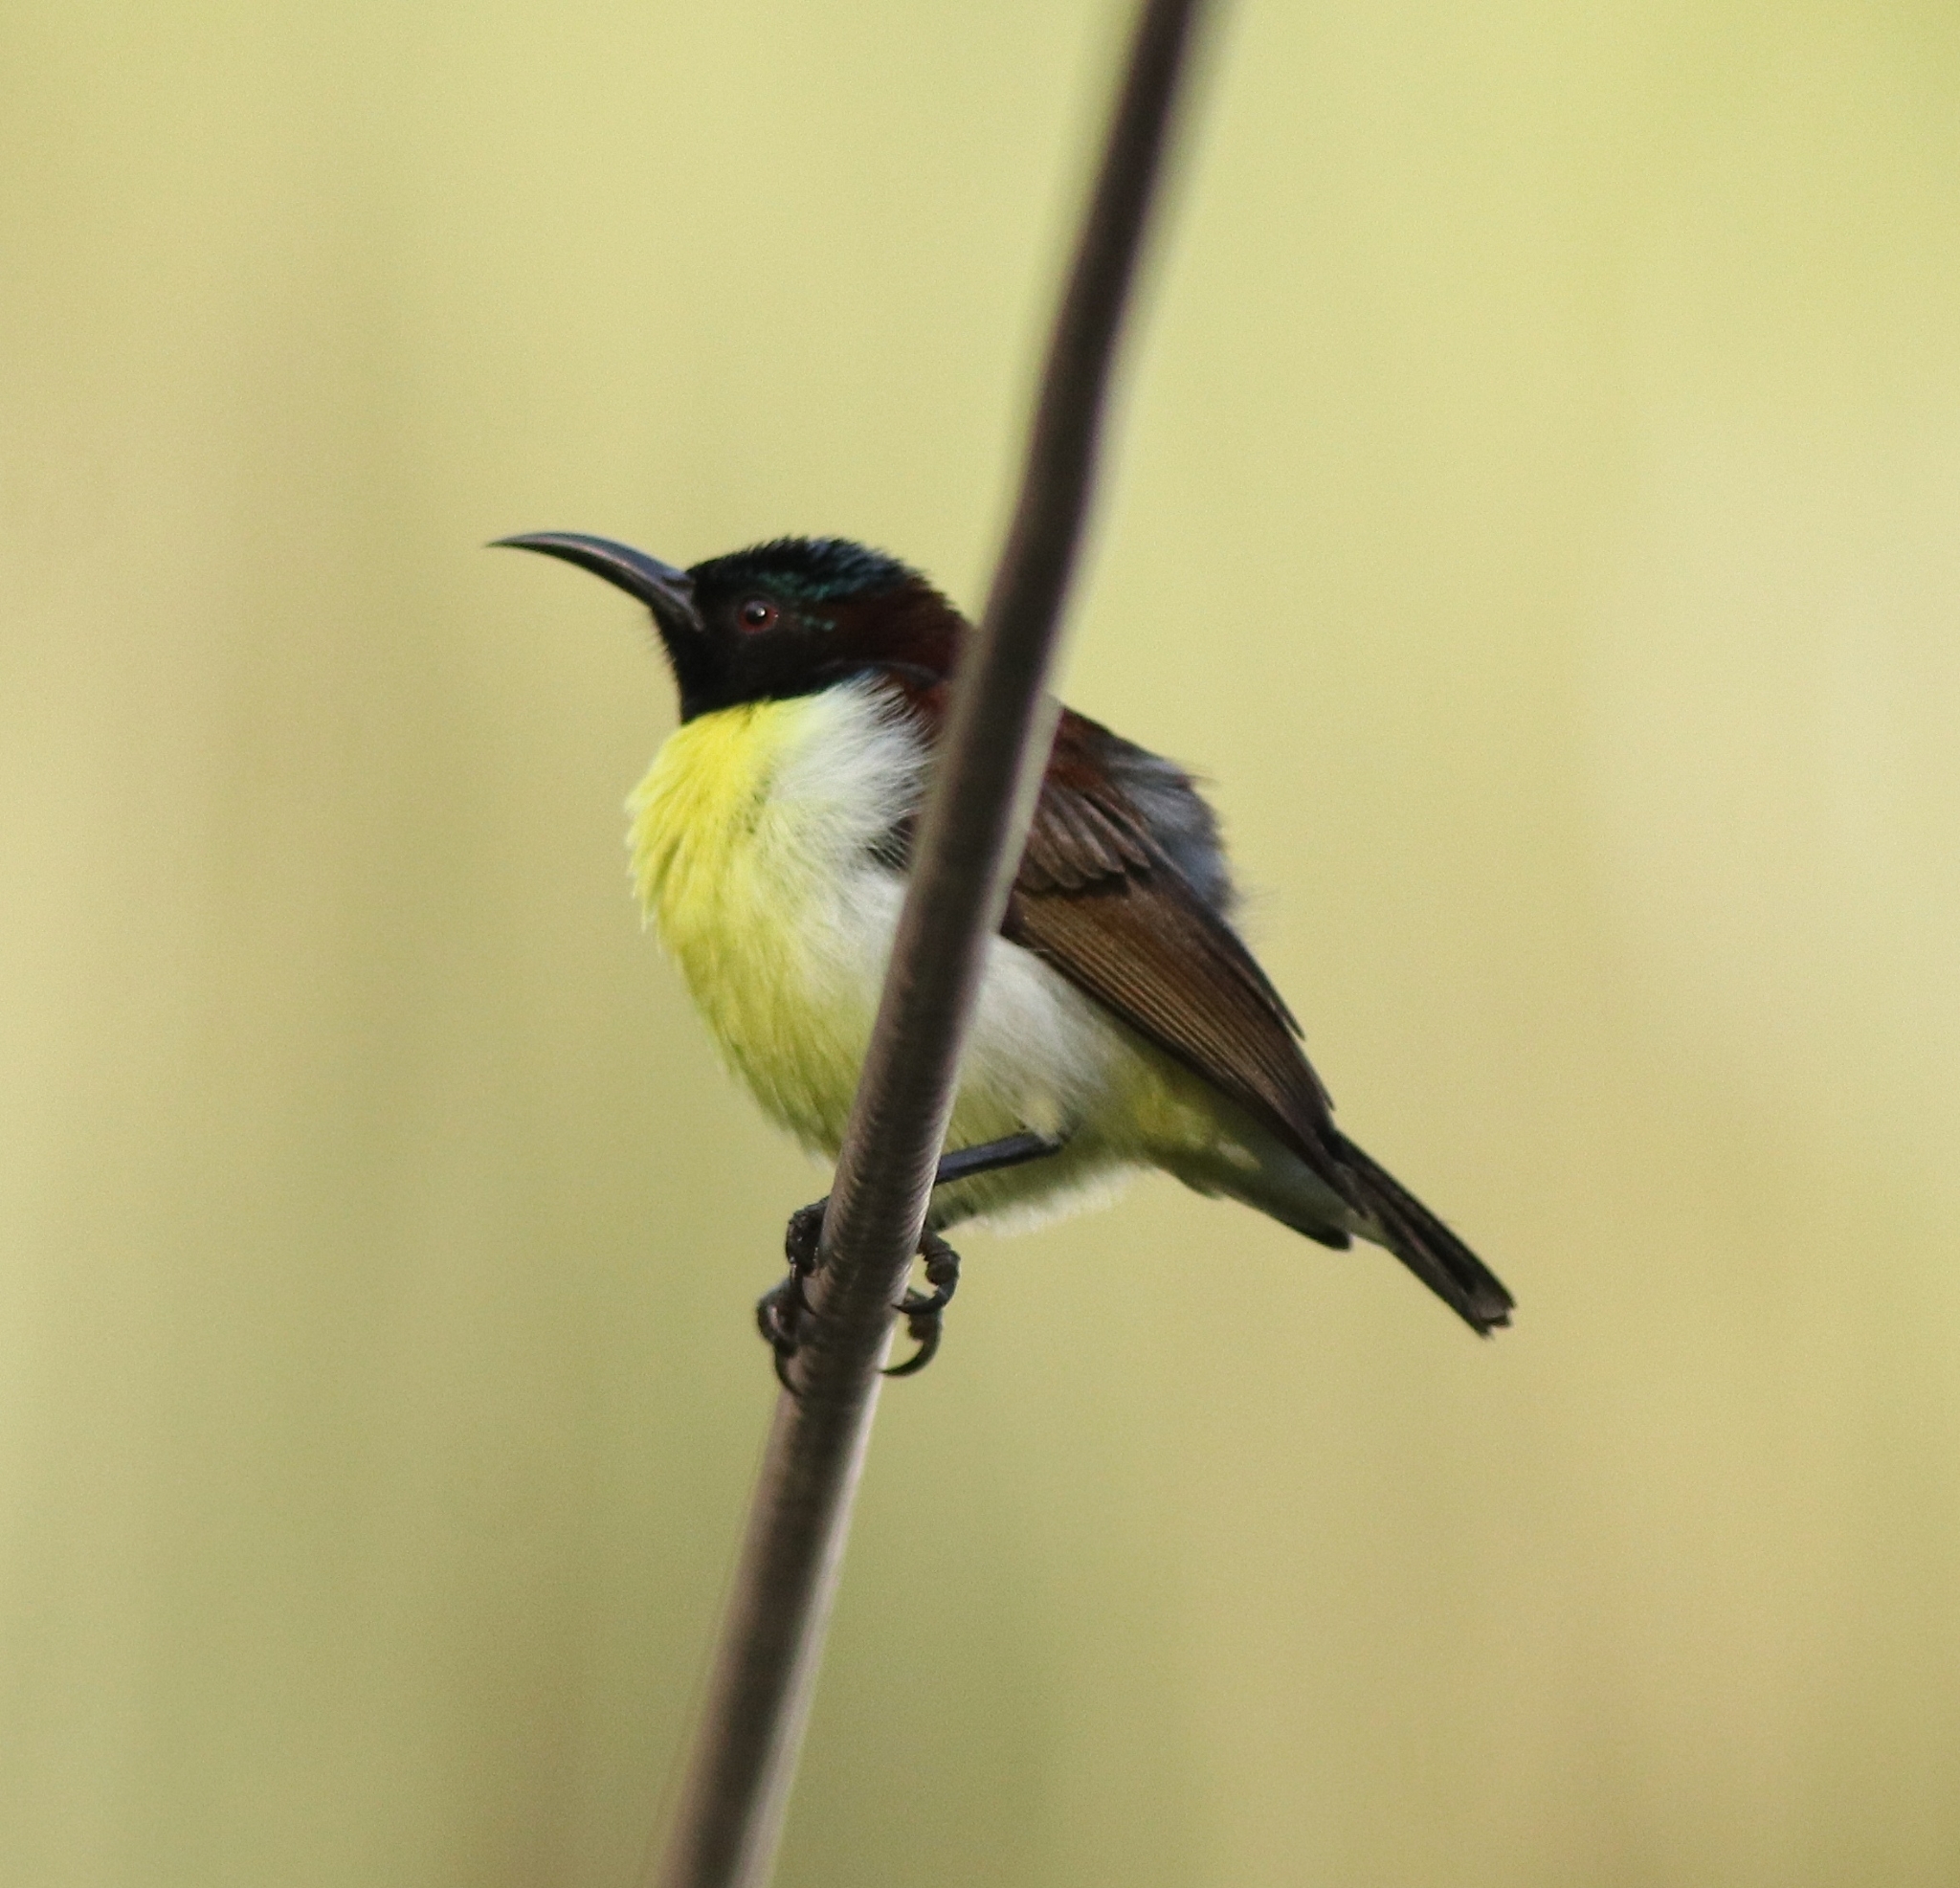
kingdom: Animalia
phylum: Chordata
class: Aves
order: Passeriformes
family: Nectariniidae
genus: Leptocoma
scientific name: Leptocoma zeylonica
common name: Purple-rumped sunbird
